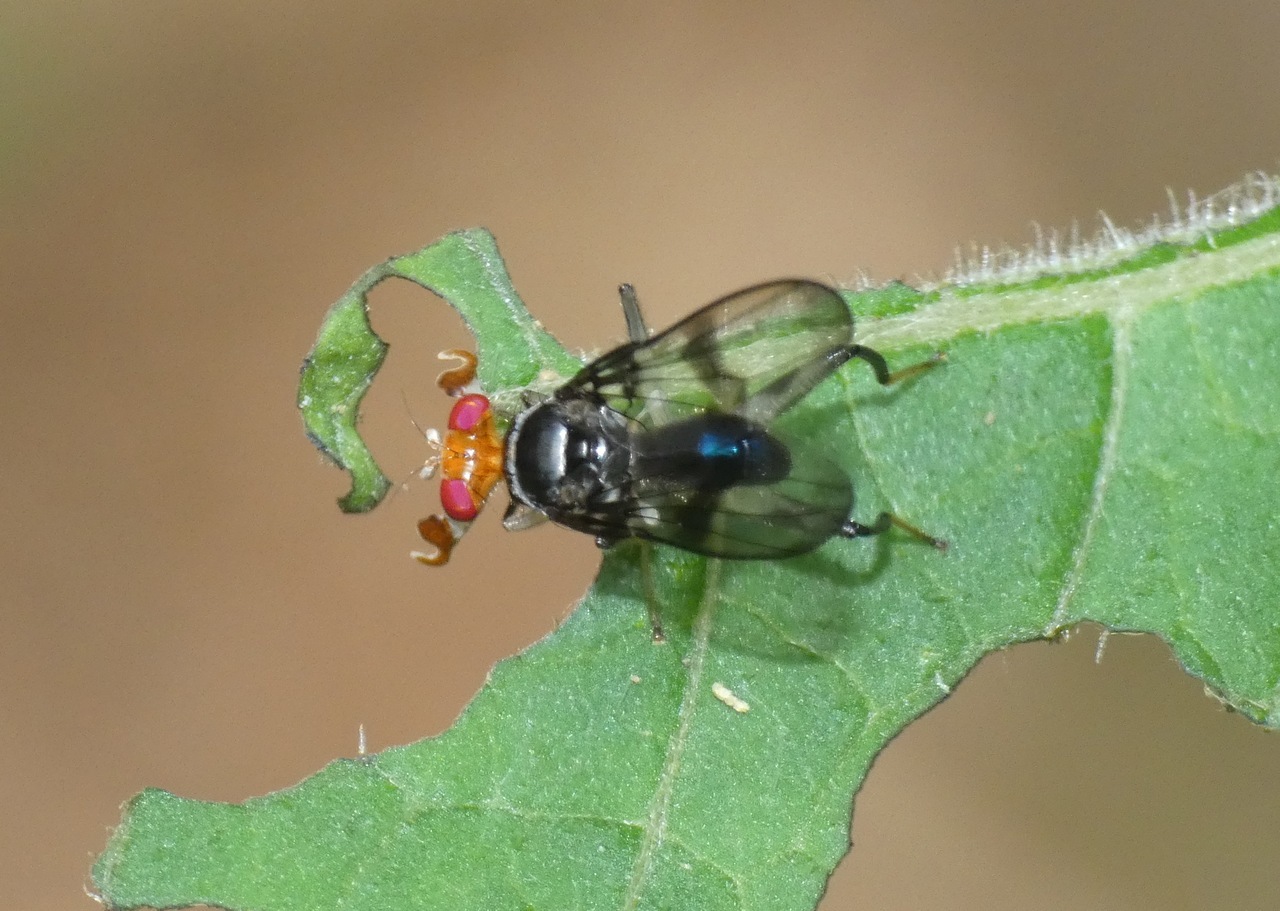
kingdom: Animalia
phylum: Arthropoda
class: Insecta
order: Diptera
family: Richardiidae
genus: Richardia
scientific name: Richardia
